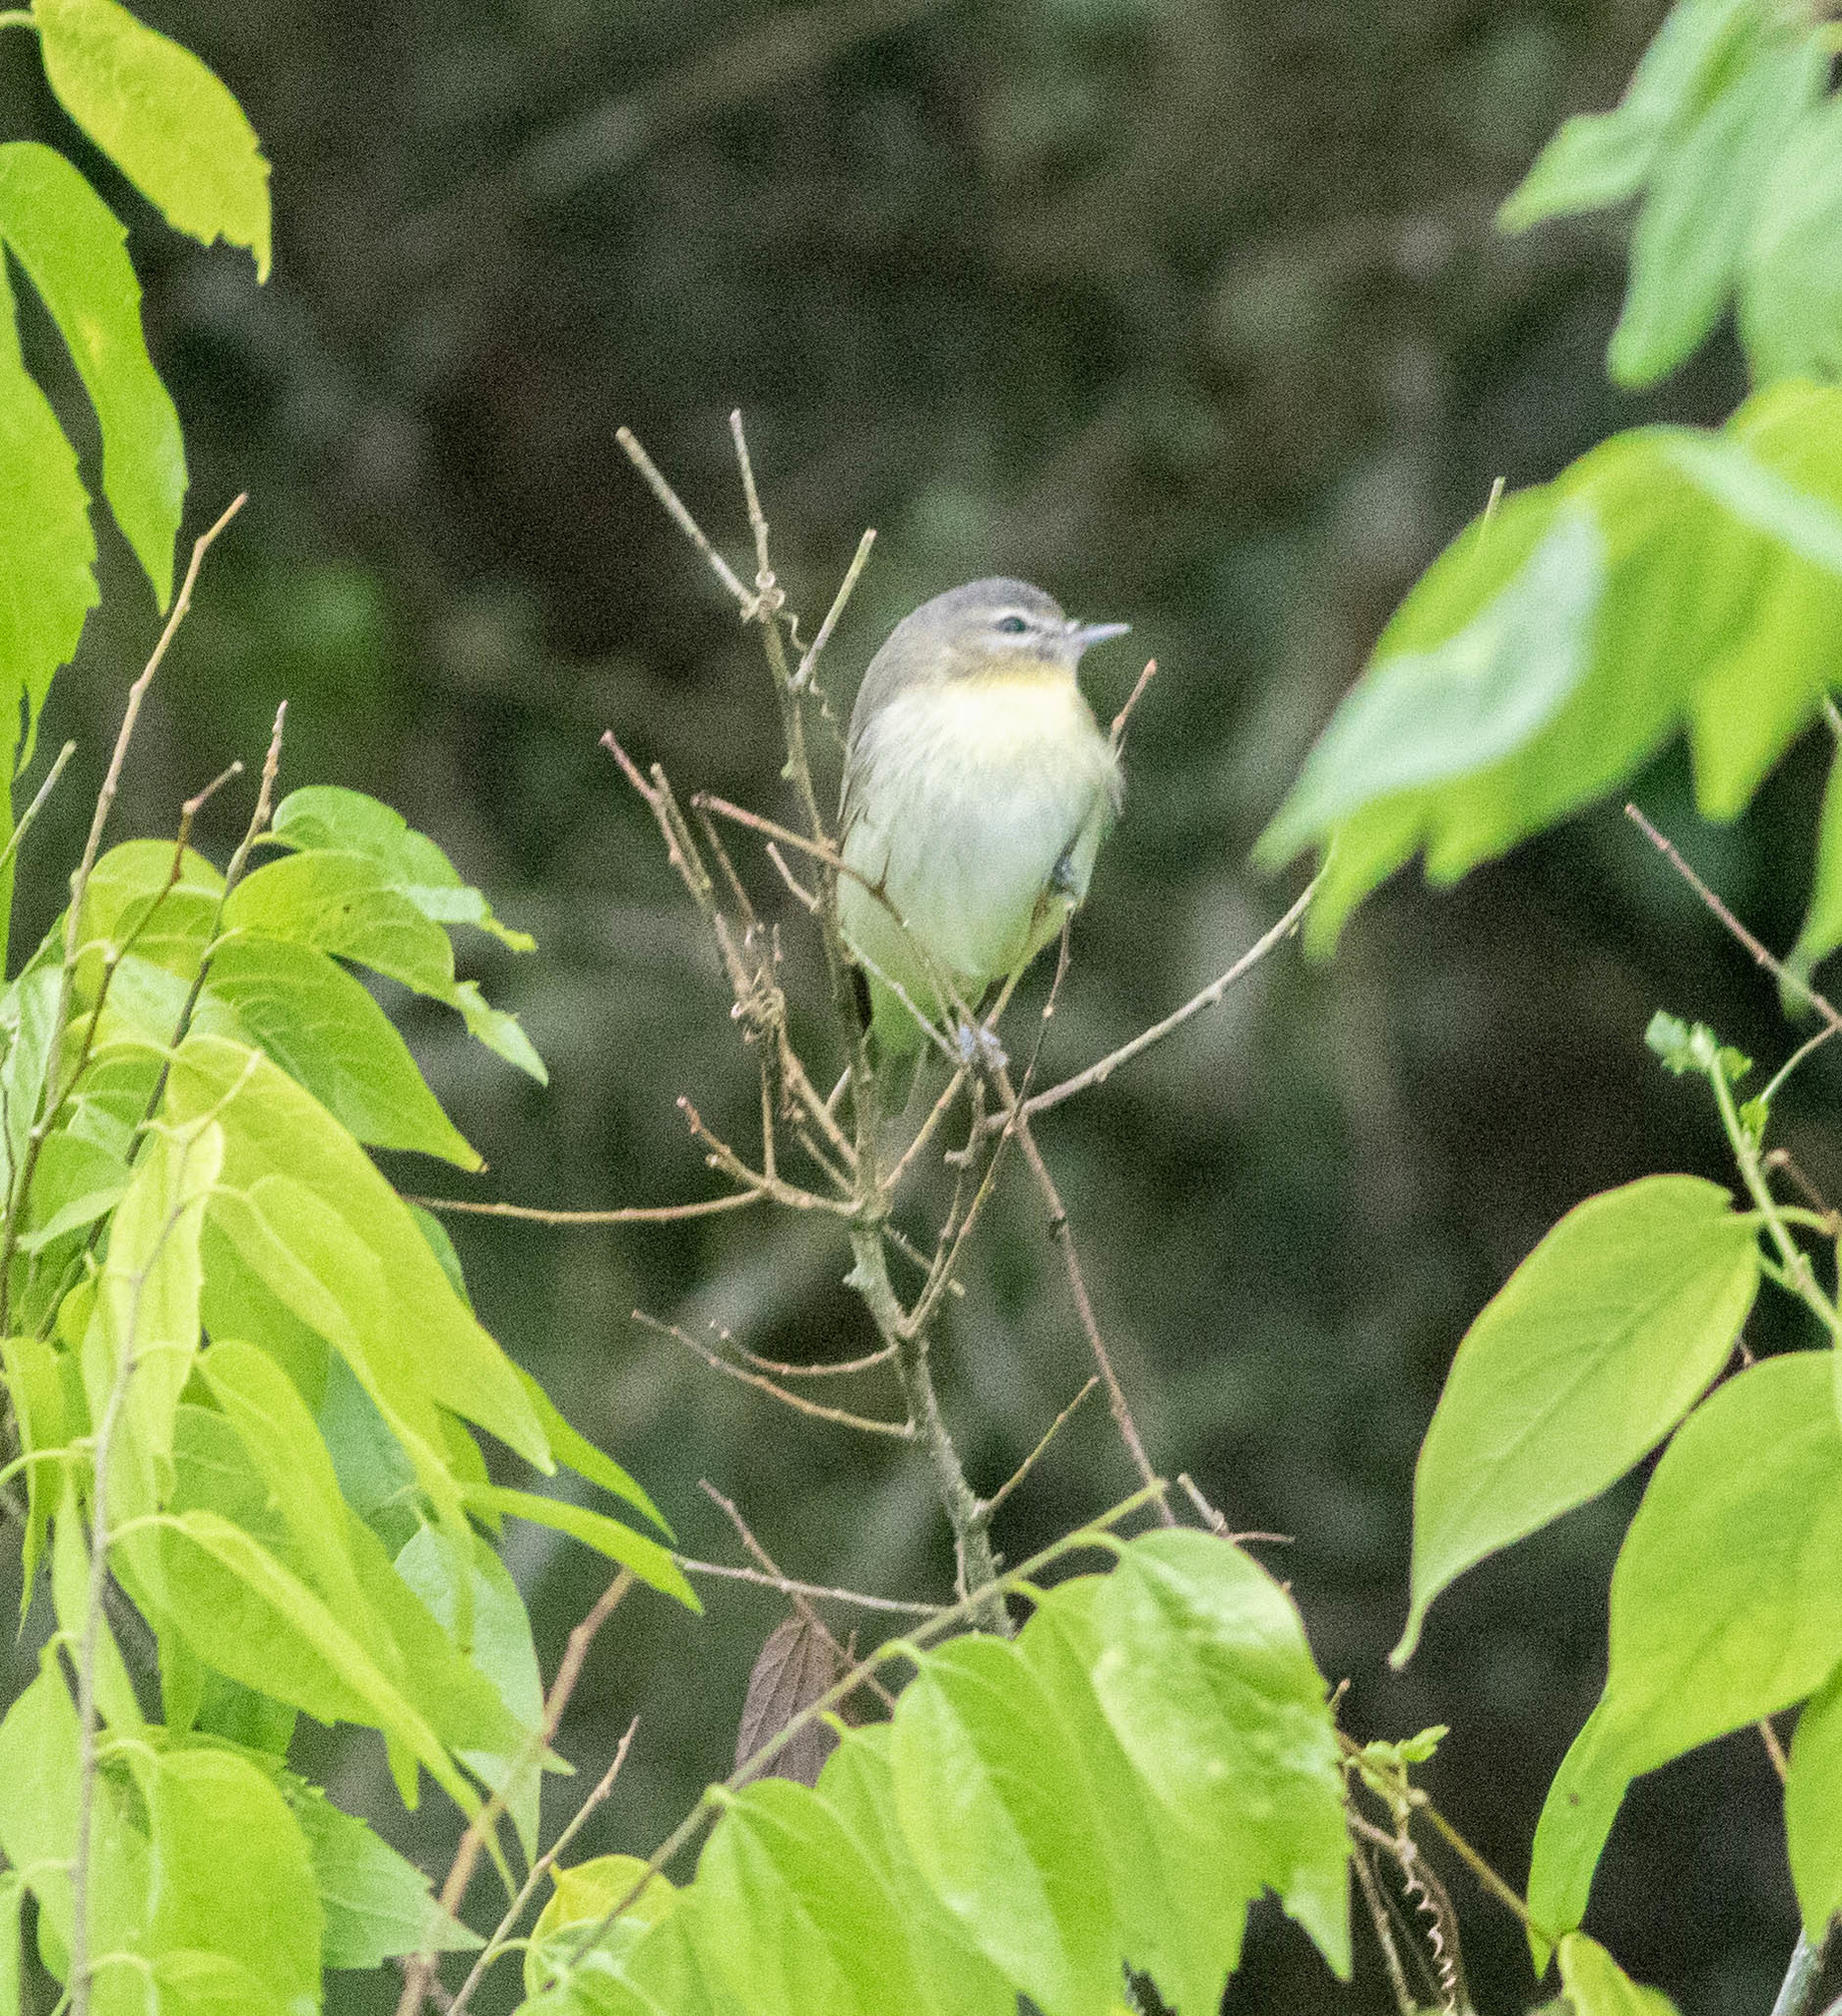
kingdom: Animalia
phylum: Chordata
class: Aves
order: Passeriformes
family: Vireonidae
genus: Vireo
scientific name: Vireo philadelphicus
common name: Philadelphia vireo
